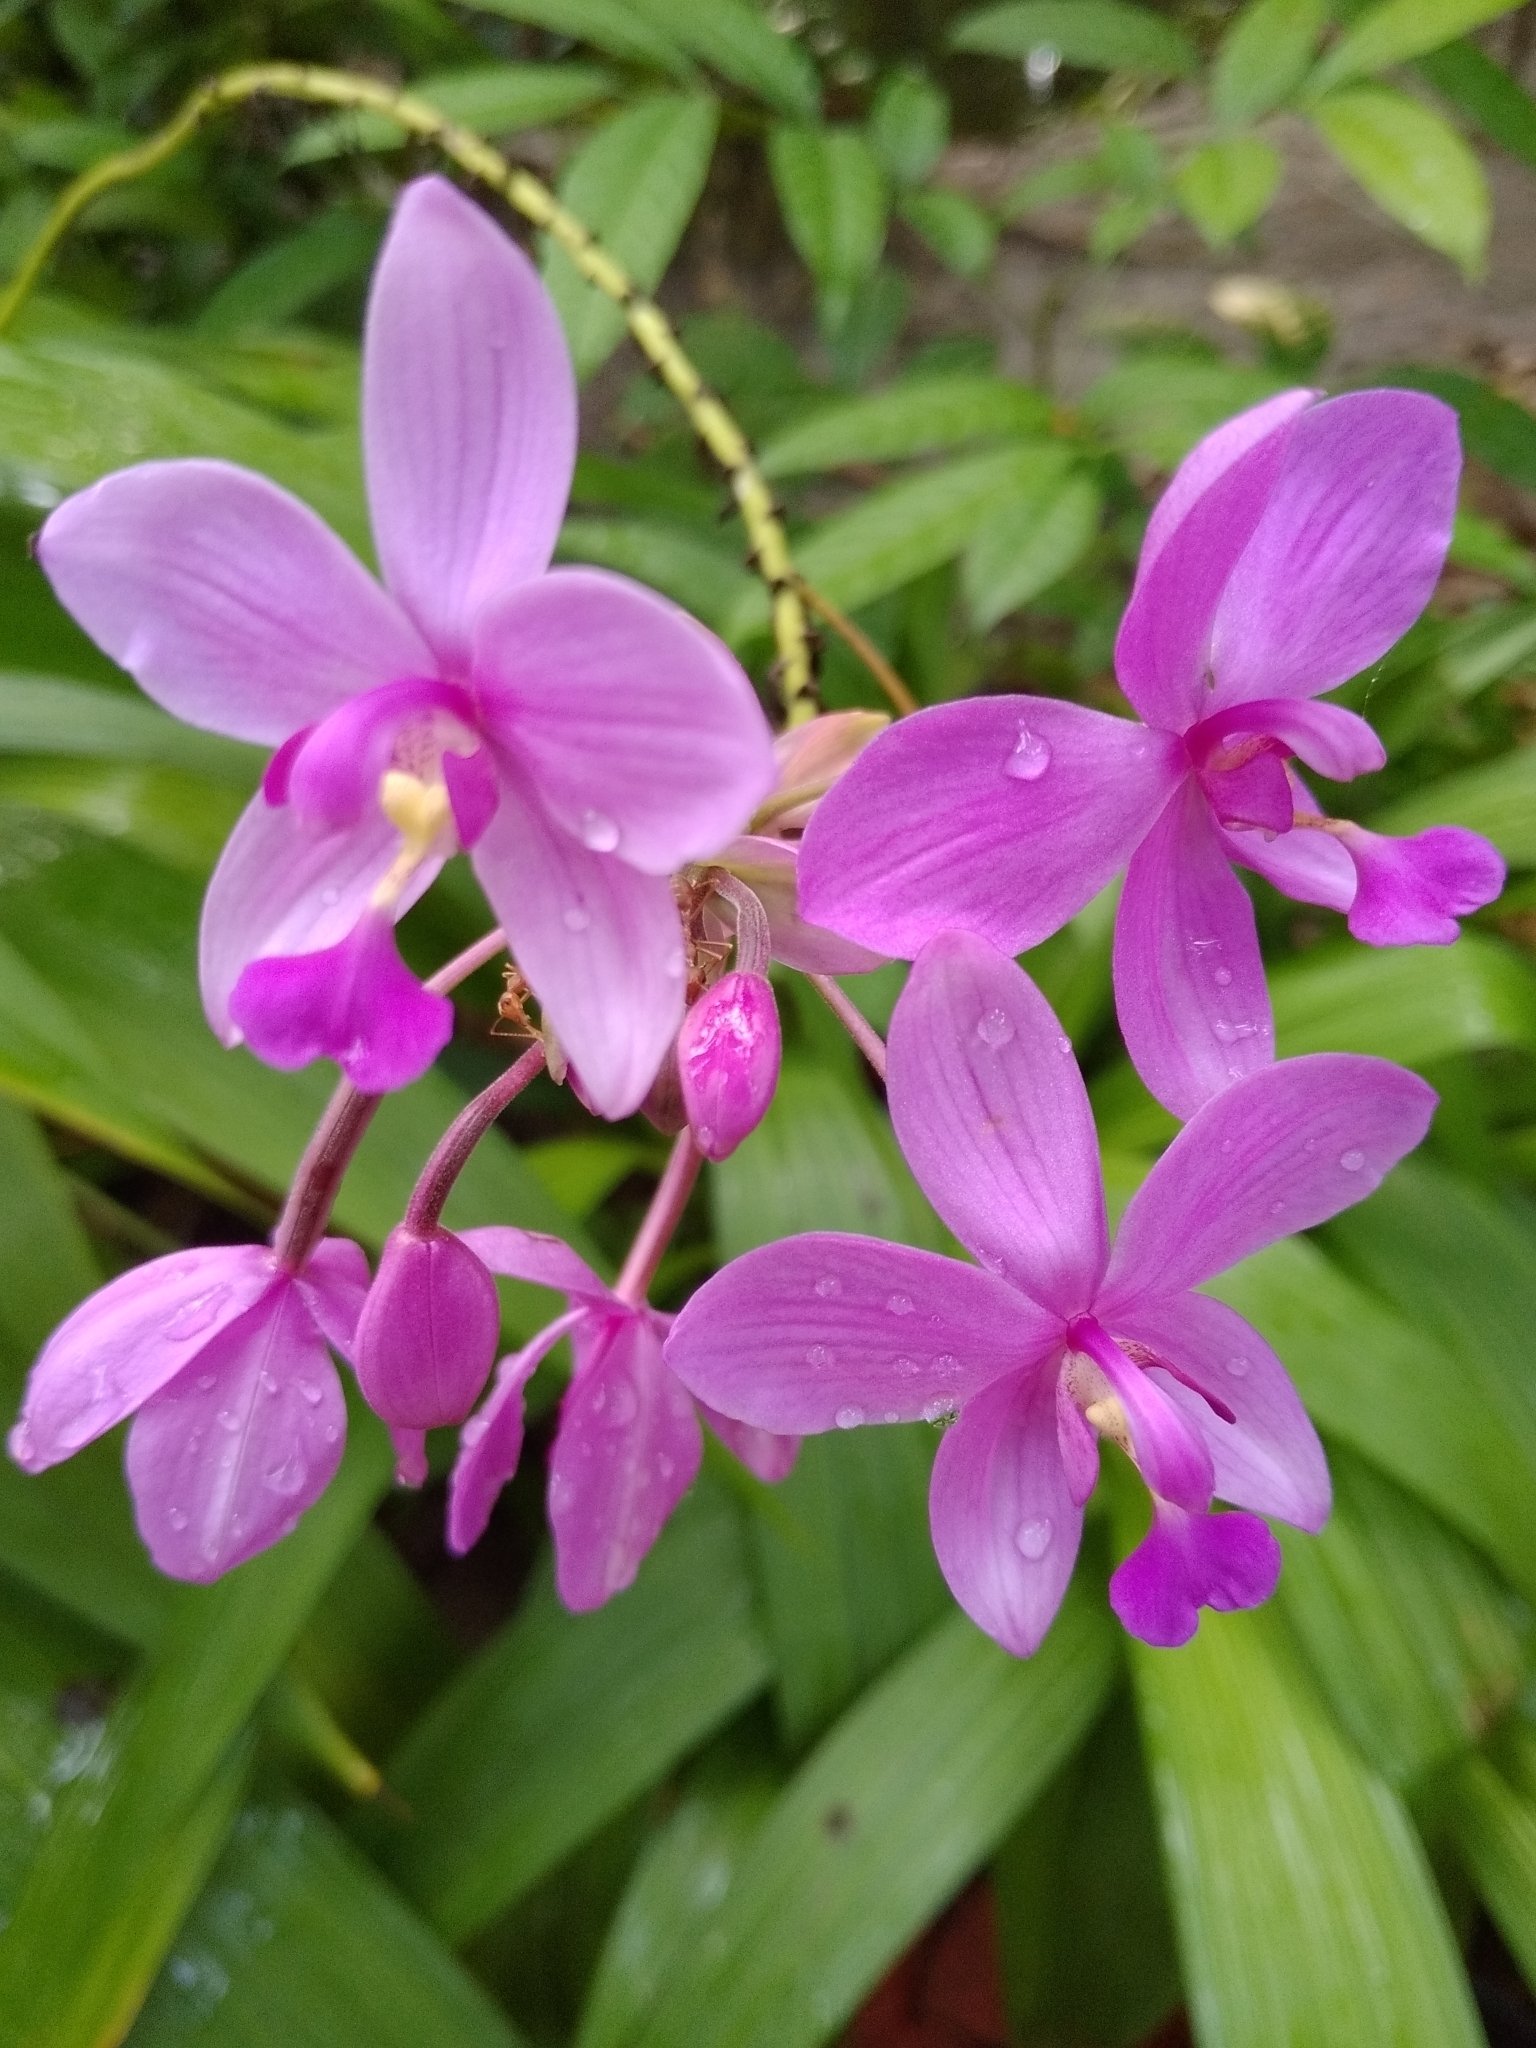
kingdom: Plantae
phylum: Tracheophyta
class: Liliopsida
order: Asparagales
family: Orchidaceae
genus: Spathoglottis
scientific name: Spathoglottis plicata
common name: Philippine ground orchid
